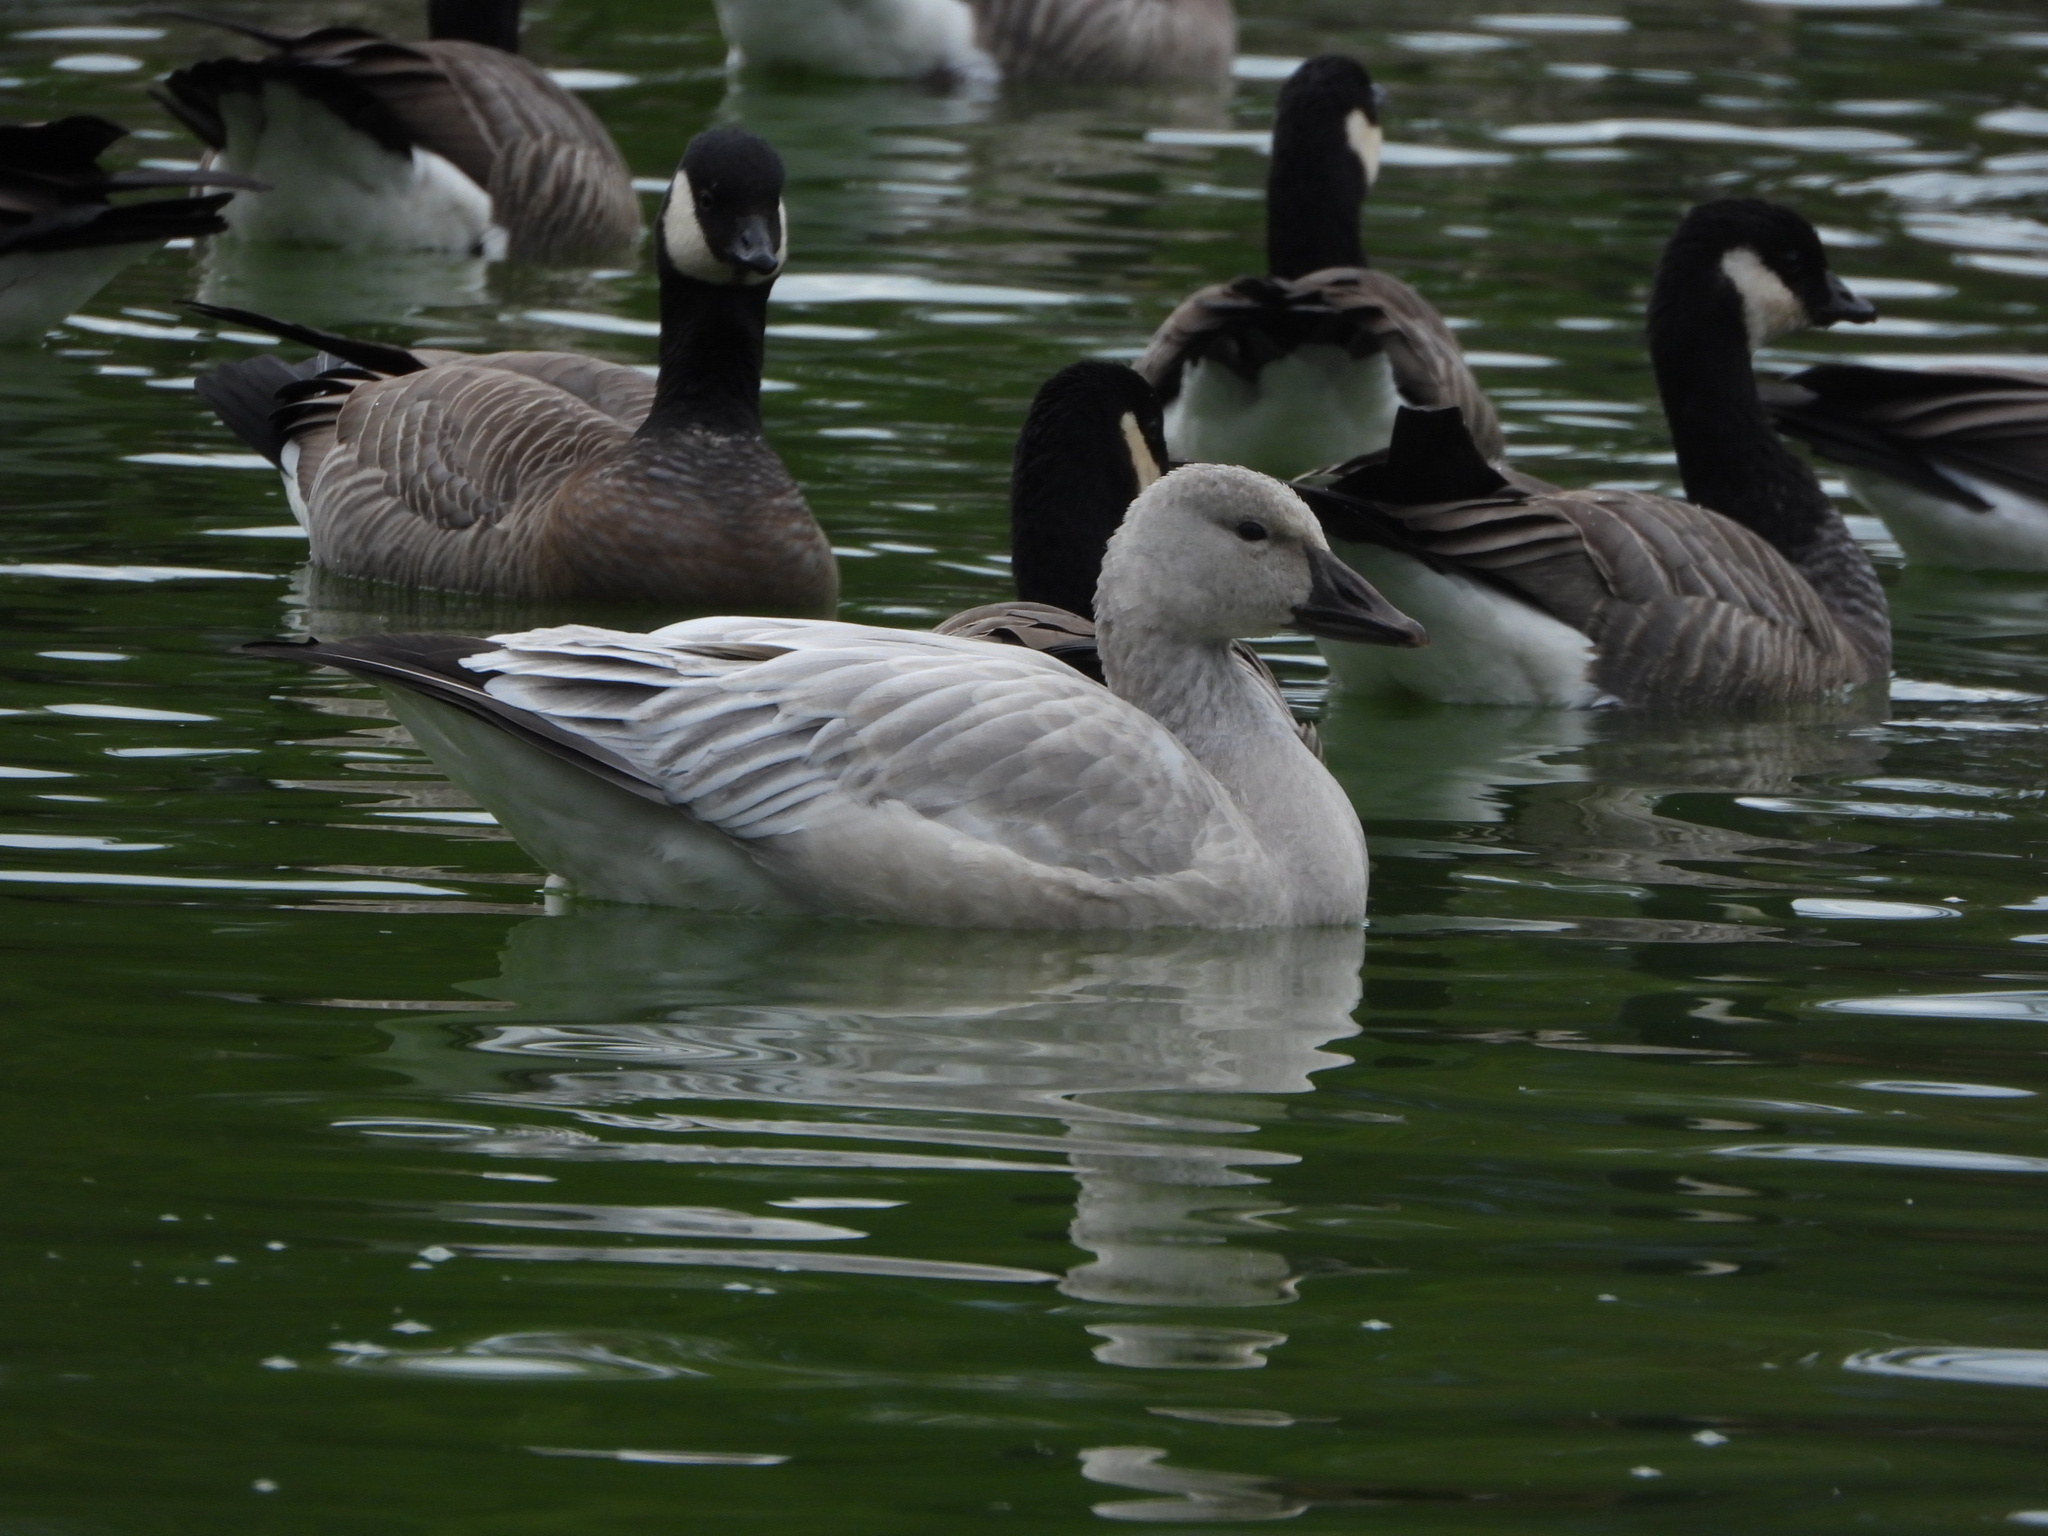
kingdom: Animalia
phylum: Chordata
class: Aves
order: Anseriformes
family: Anatidae
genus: Anser
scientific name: Anser caerulescens
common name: Snow goose
